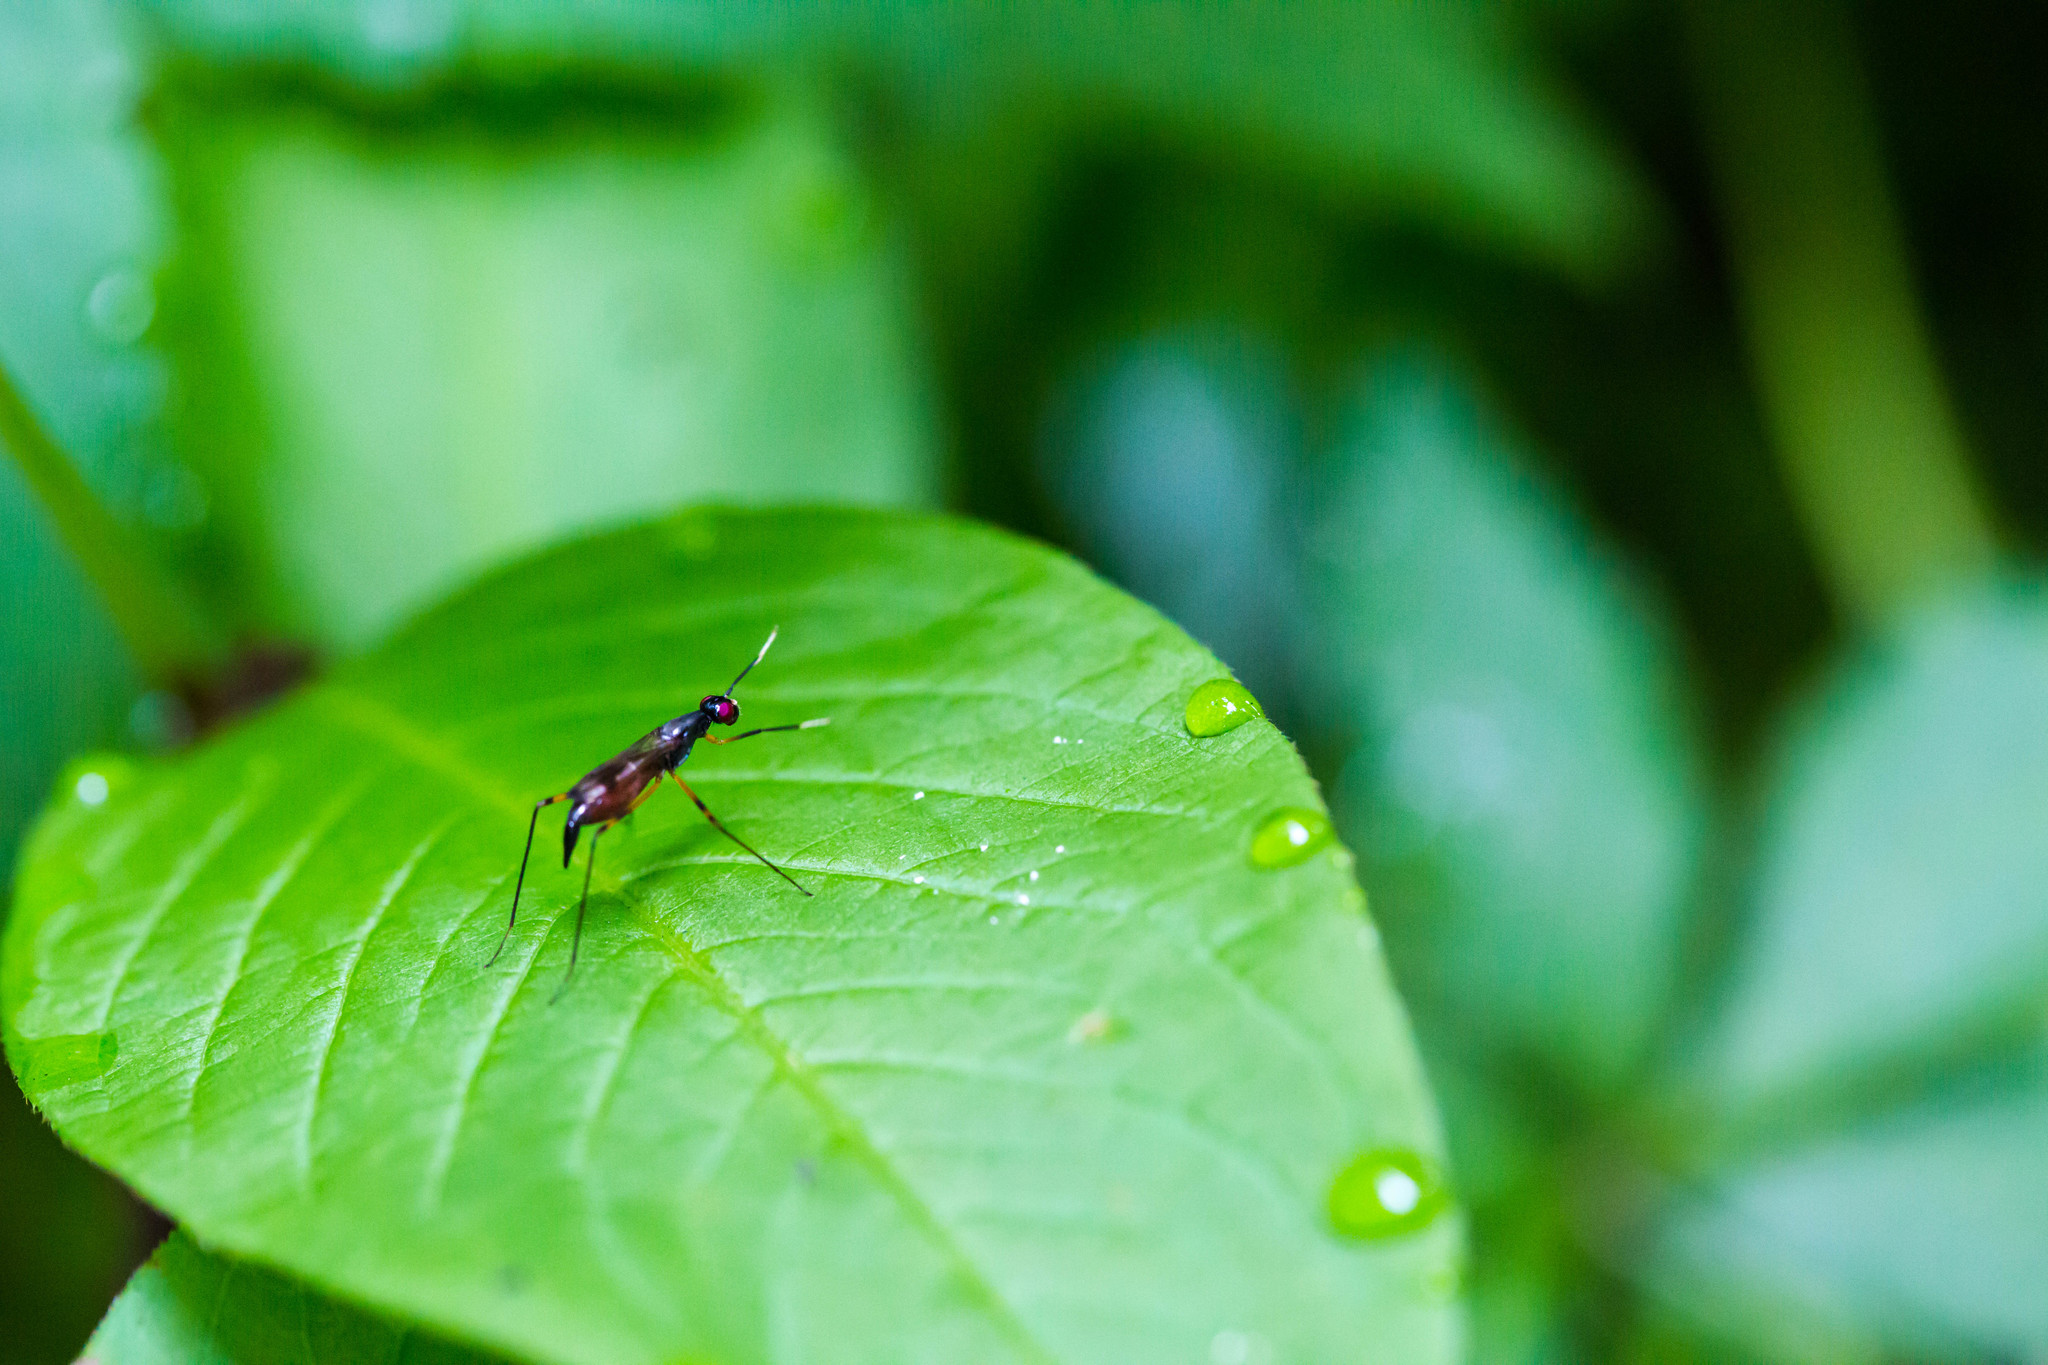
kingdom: Animalia
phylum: Arthropoda
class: Insecta
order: Diptera
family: Micropezidae
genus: Rainieria
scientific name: Rainieria antennaepes
